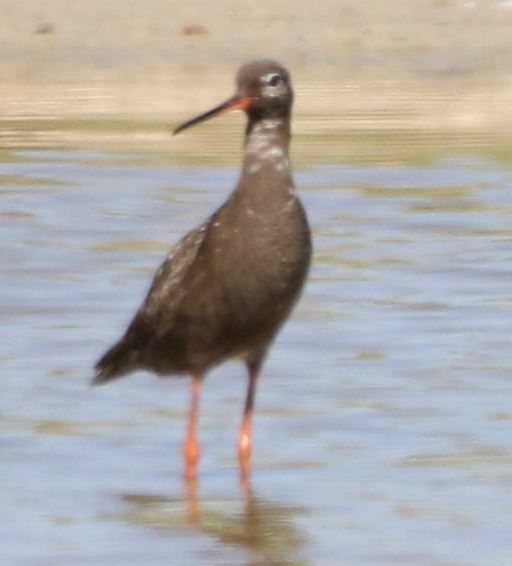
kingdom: Animalia
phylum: Chordata
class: Aves
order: Charadriiformes
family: Scolopacidae
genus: Tringa
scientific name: Tringa erythropus
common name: Spotted redshank
